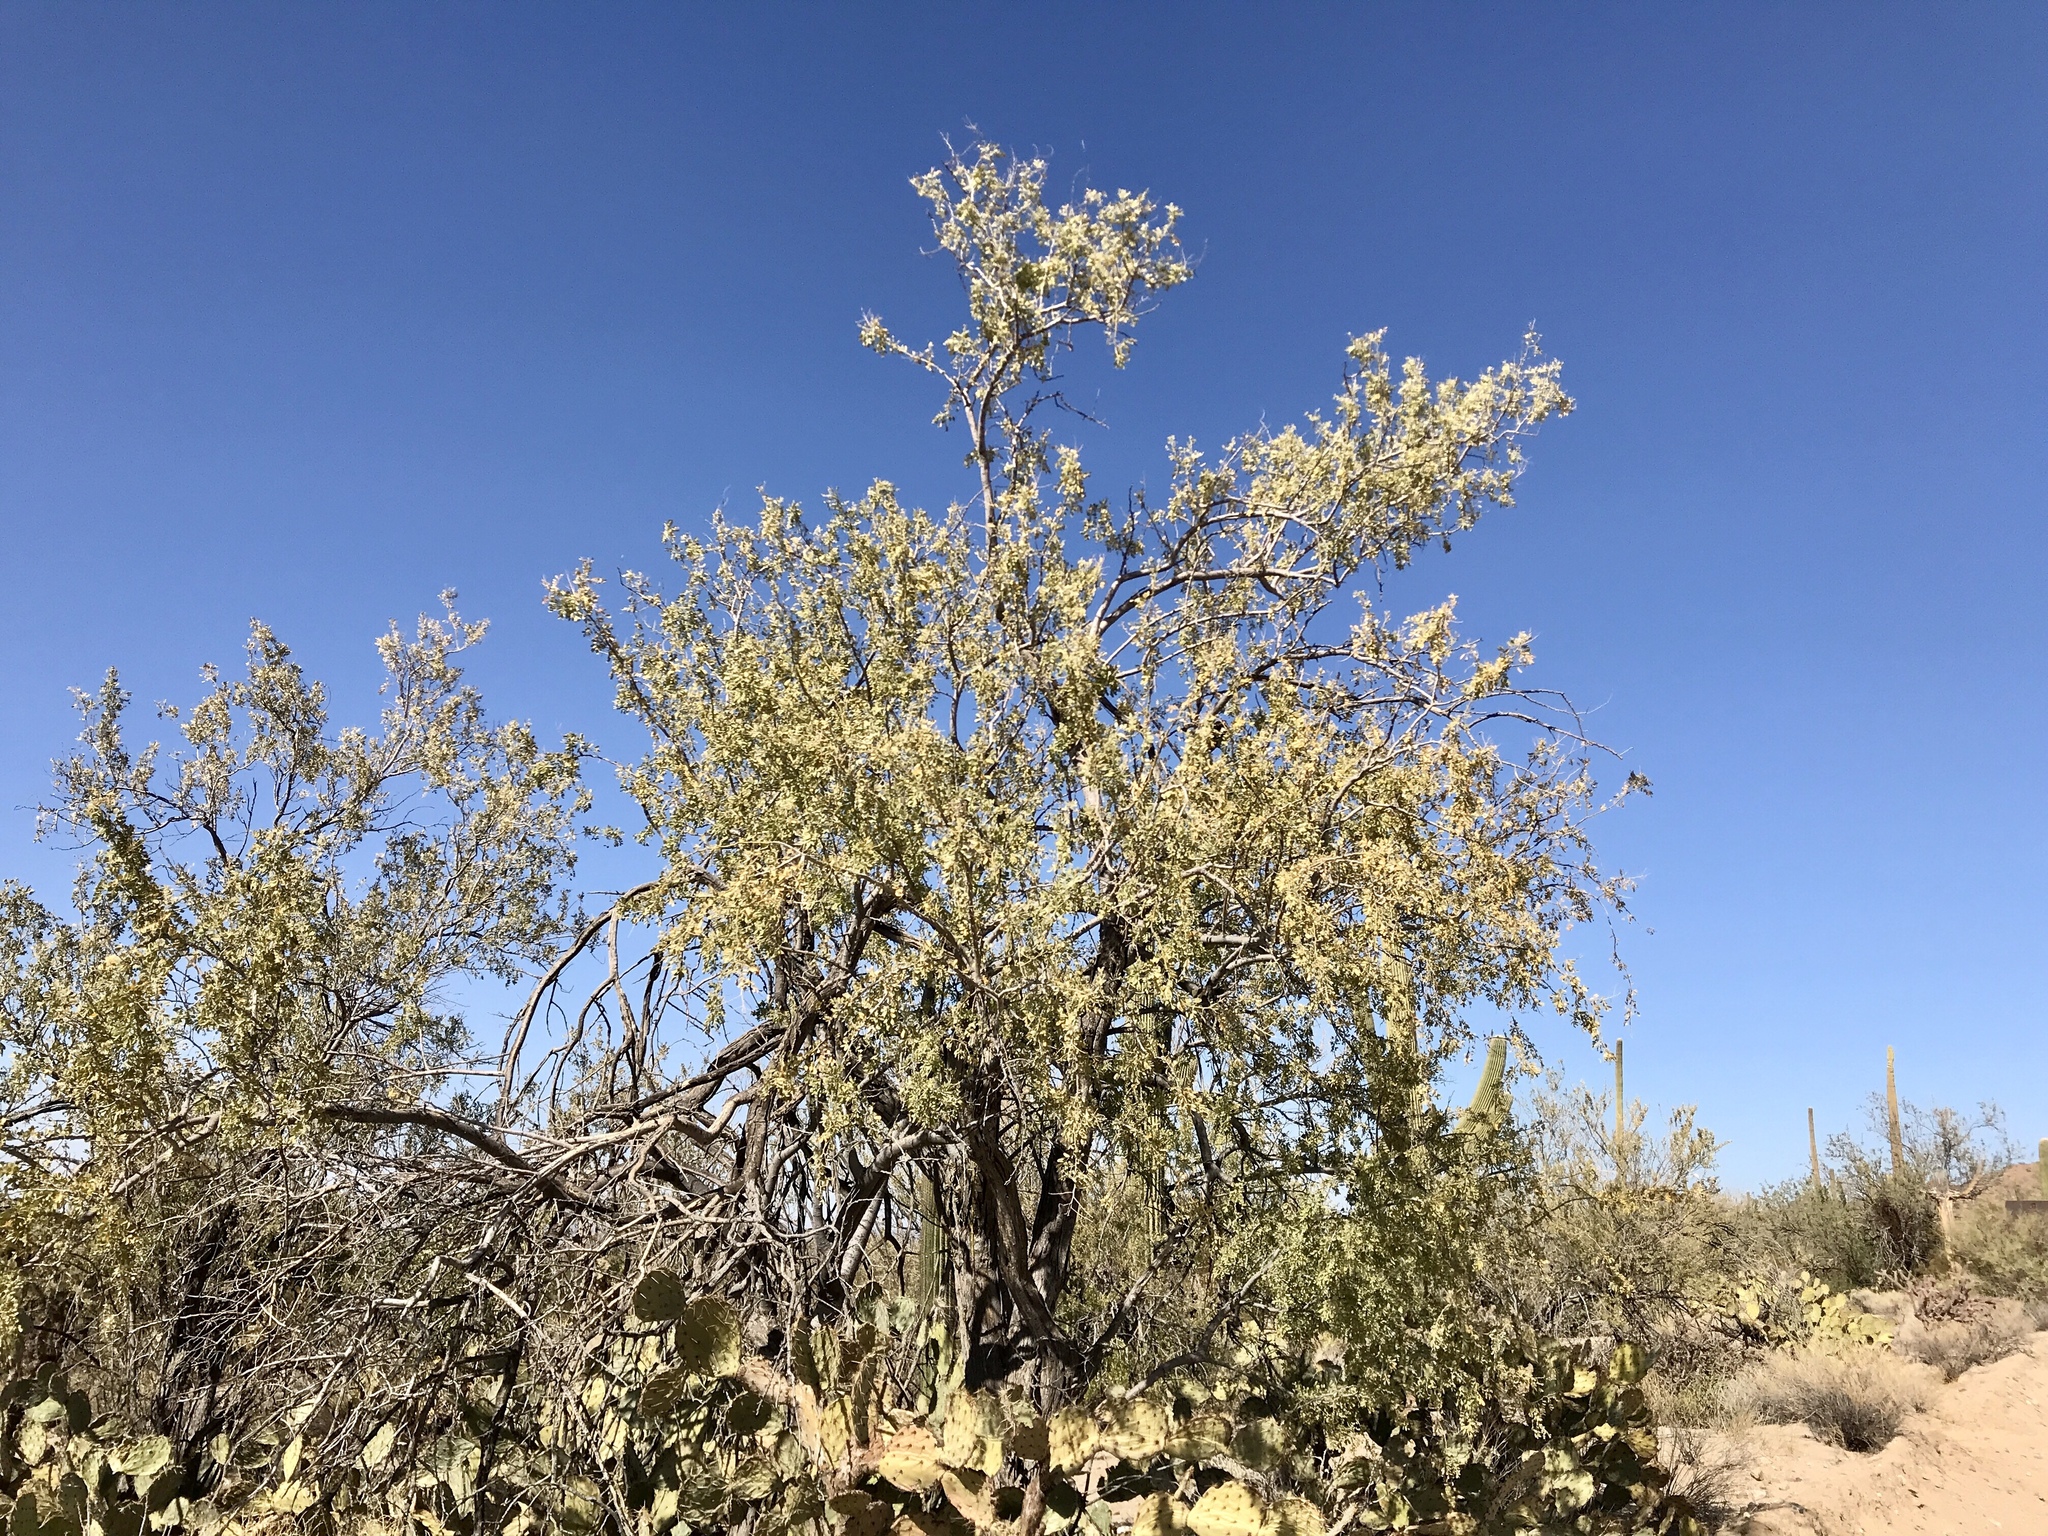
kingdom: Plantae
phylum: Tracheophyta
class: Magnoliopsida
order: Fabales
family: Fabaceae
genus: Olneya
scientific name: Olneya tesota
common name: Desert ironwood
